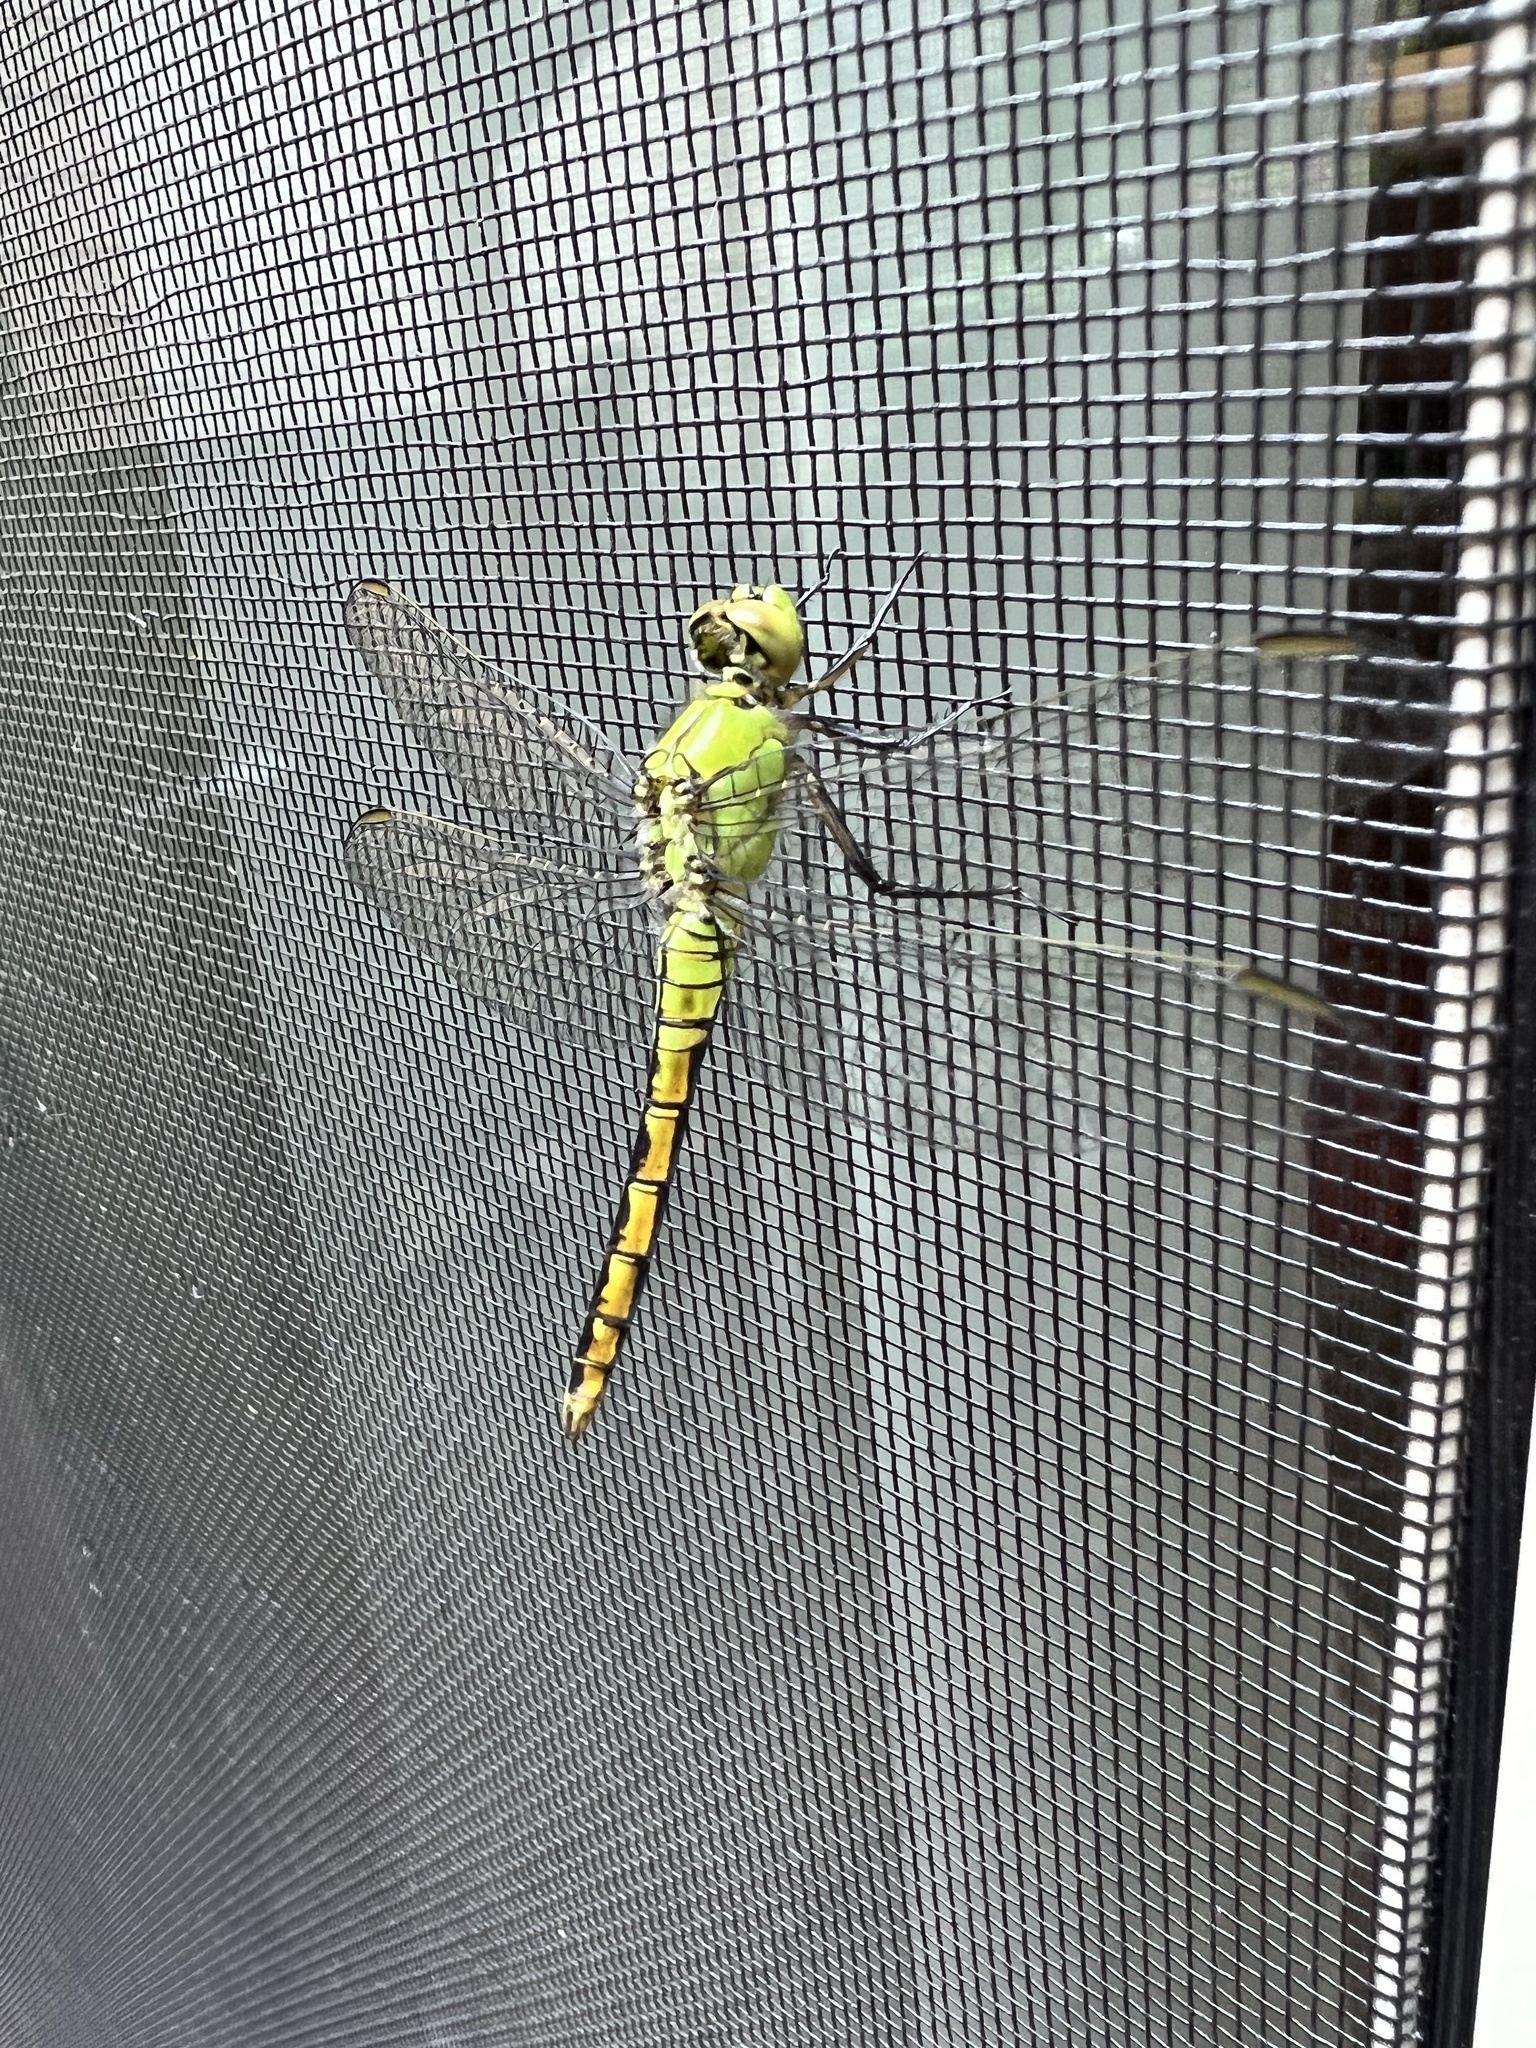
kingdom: Animalia
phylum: Arthropoda
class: Insecta
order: Odonata
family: Libellulidae
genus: Erythemis
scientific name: Erythemis collocata
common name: Western pondhawk
